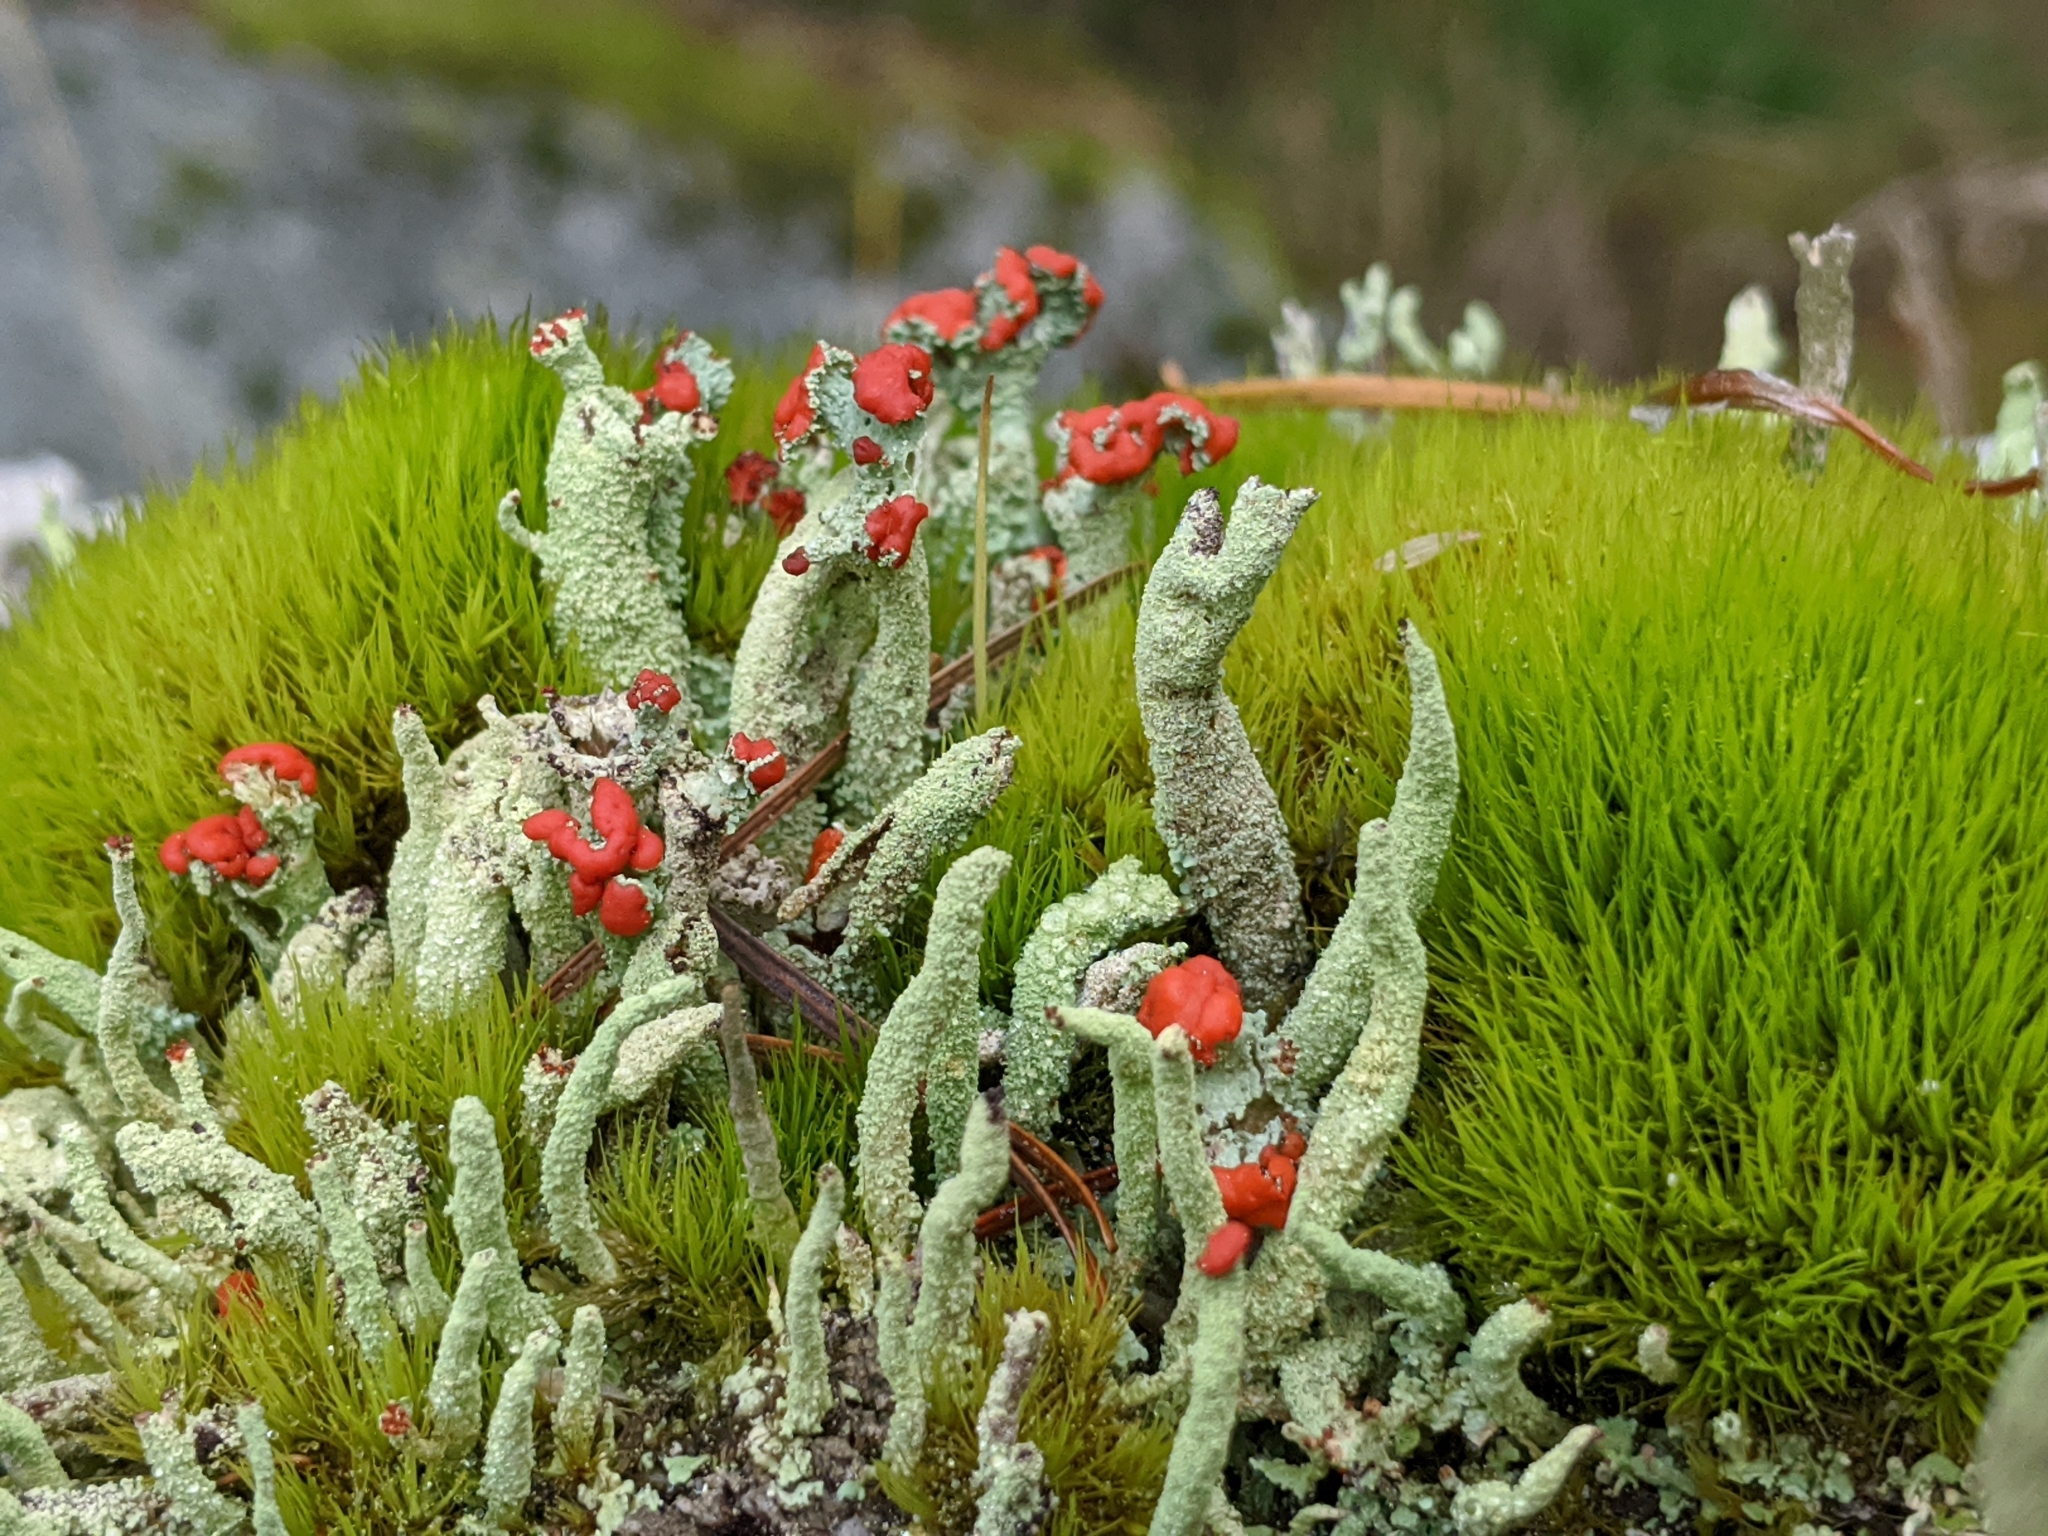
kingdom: Fungi
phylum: Ascomycota
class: Lecanoromycetes
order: Lecanorales
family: Cladoniaceae
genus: Cladonia
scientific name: Cladonia cristatella
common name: British soldier lichen
